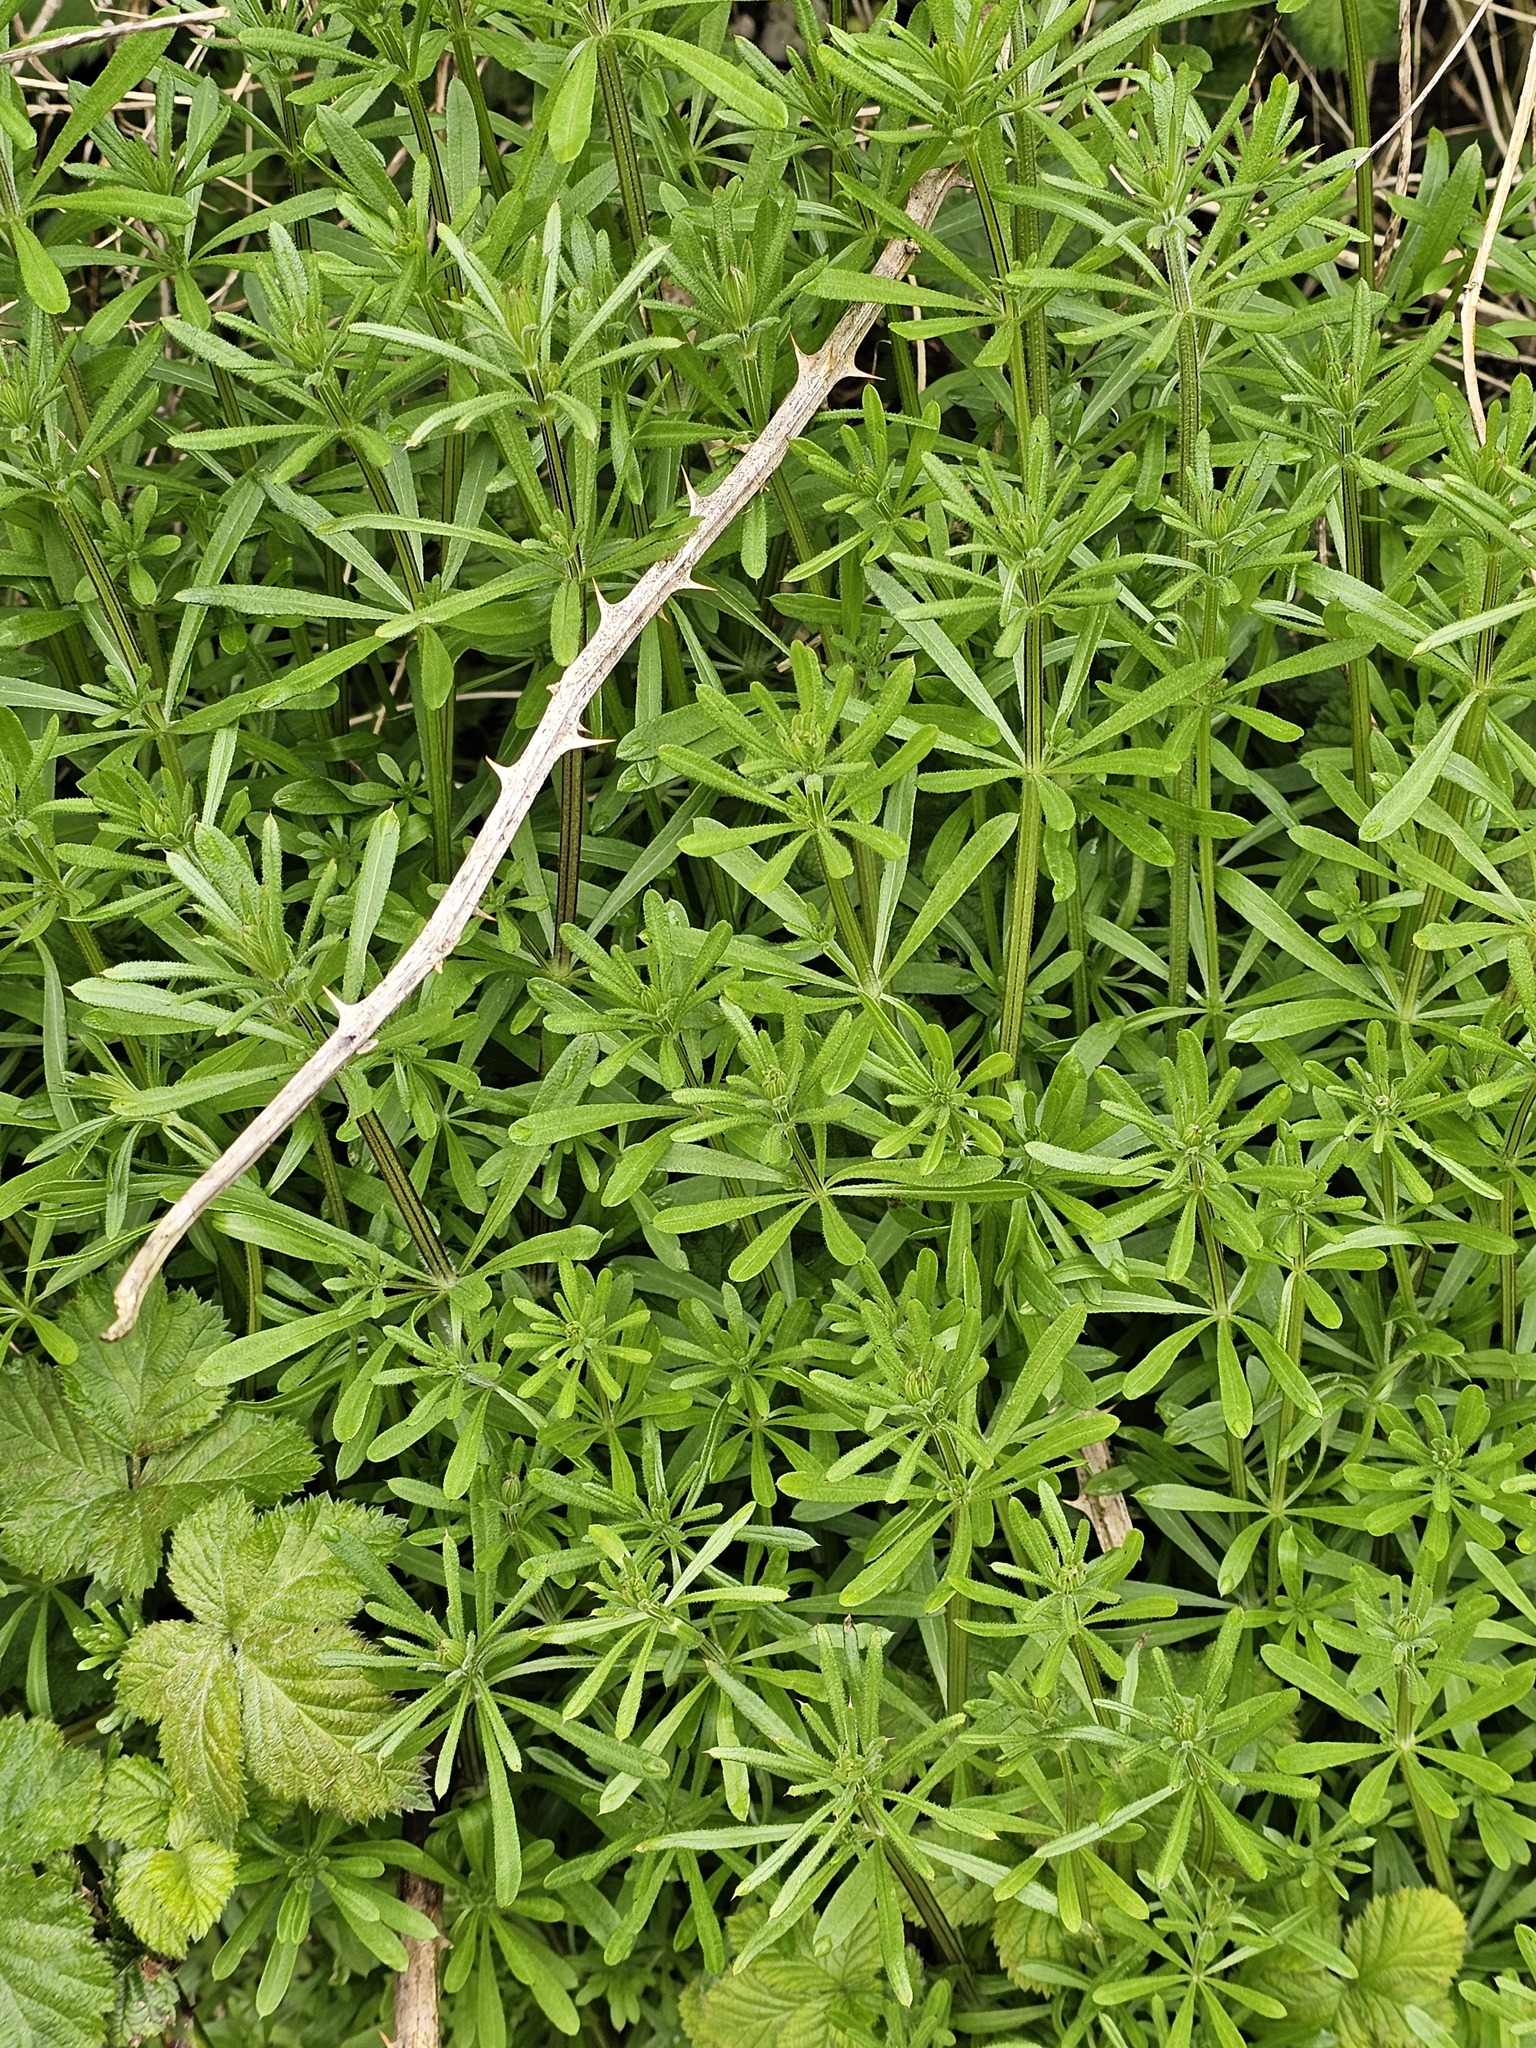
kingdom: Plantae
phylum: Tracheophyta
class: Magnoliopsida
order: Gentianales
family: Rubiaceae
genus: Galium
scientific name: Galium aparine
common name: Cleavers
